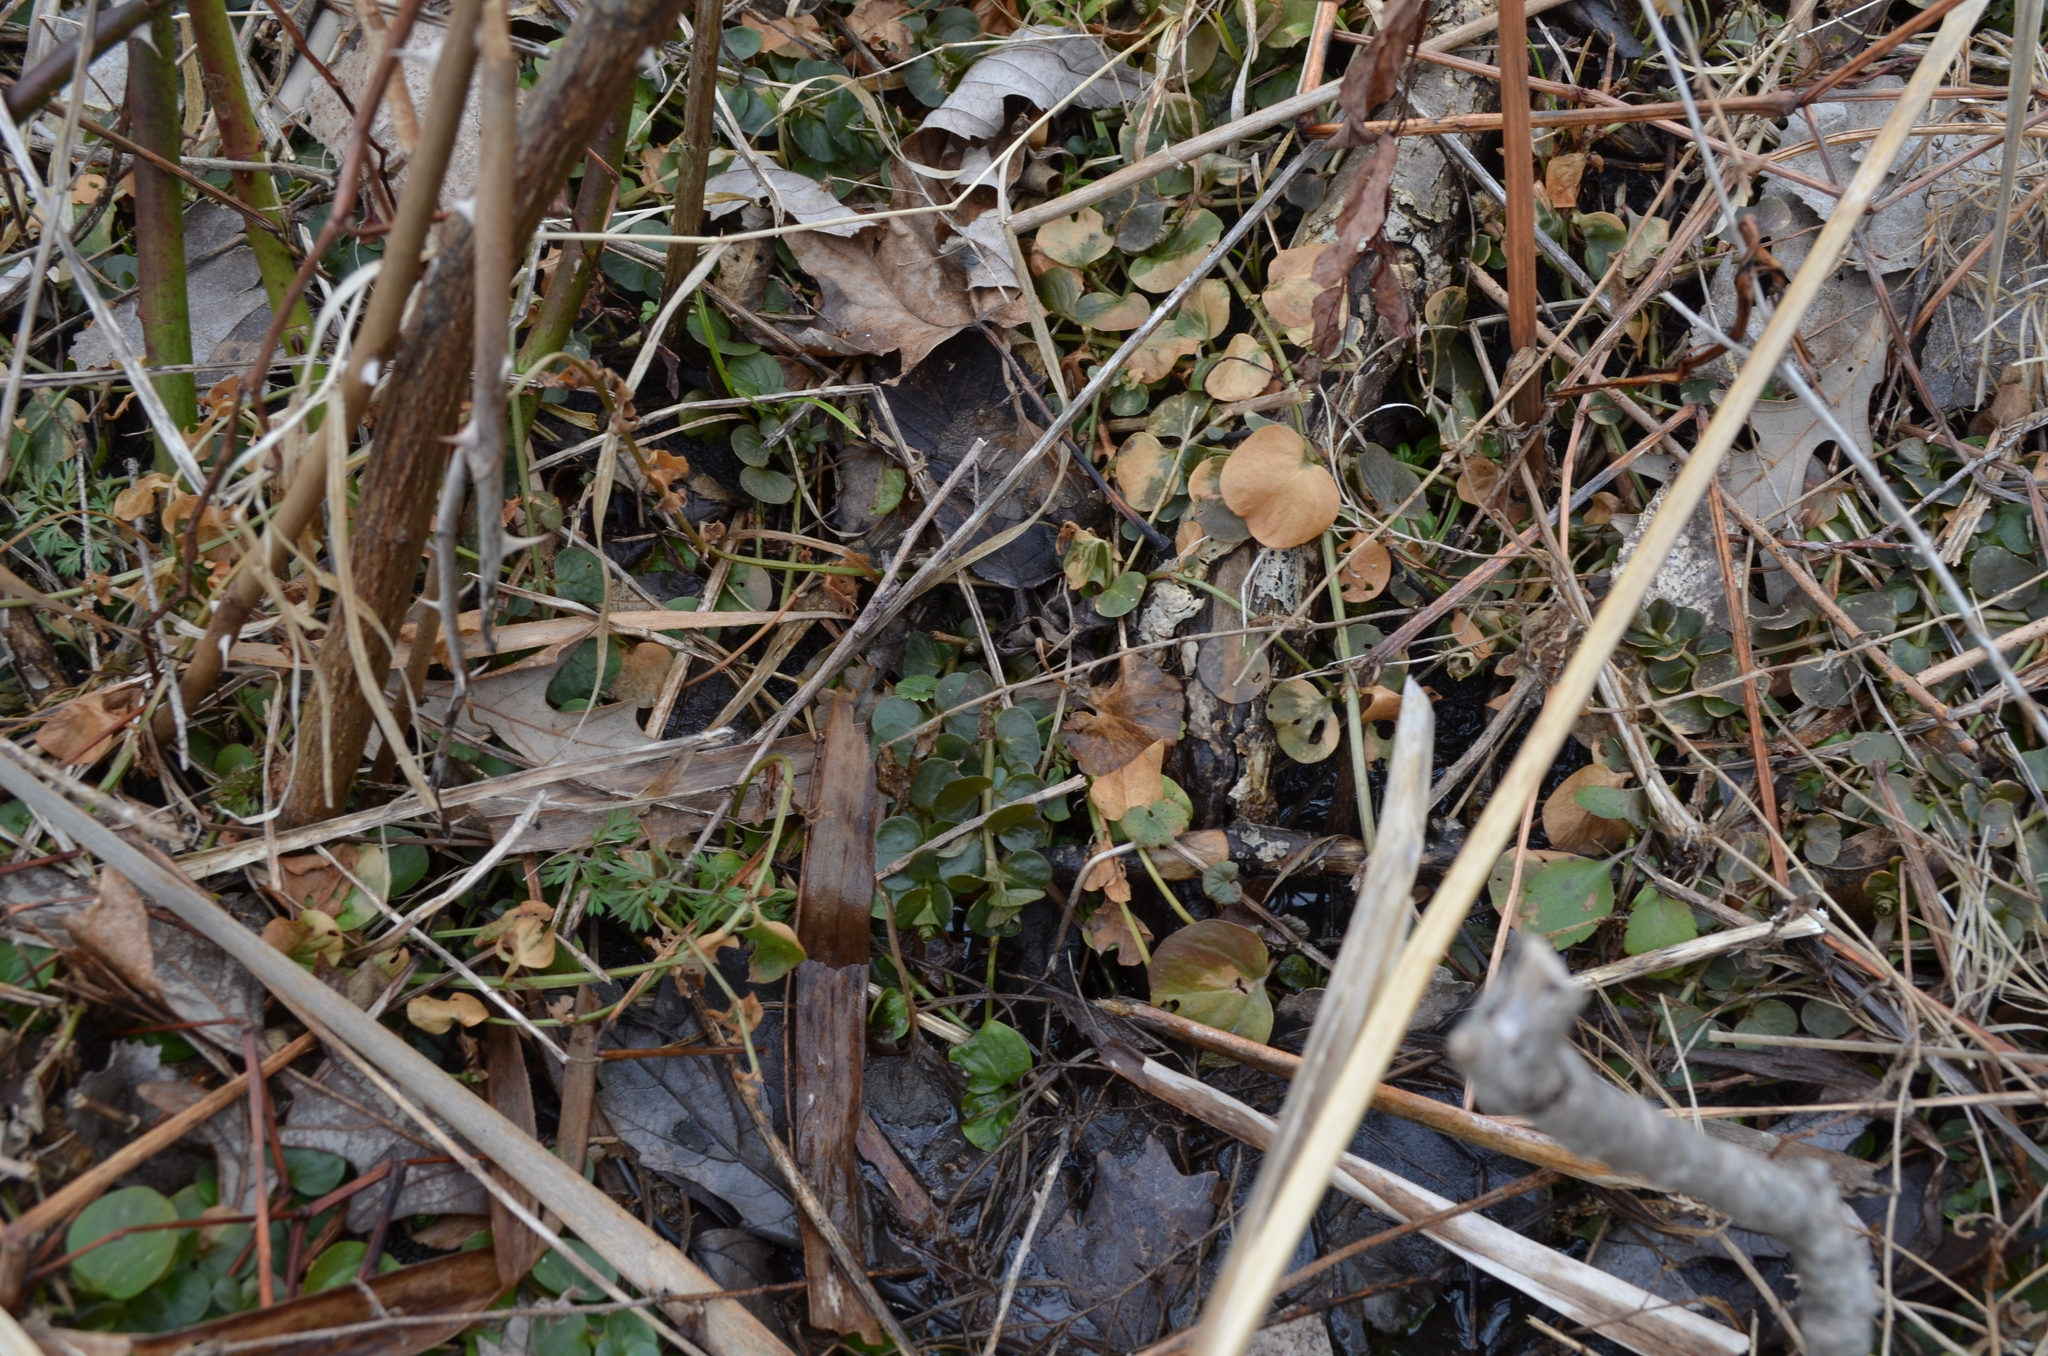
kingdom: Plantae
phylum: Tracheophyta
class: Magnoliopsida
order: Ericales
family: Primulaceae
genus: Lysimachia
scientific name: Lysimachia nummularia
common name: Moneywort
